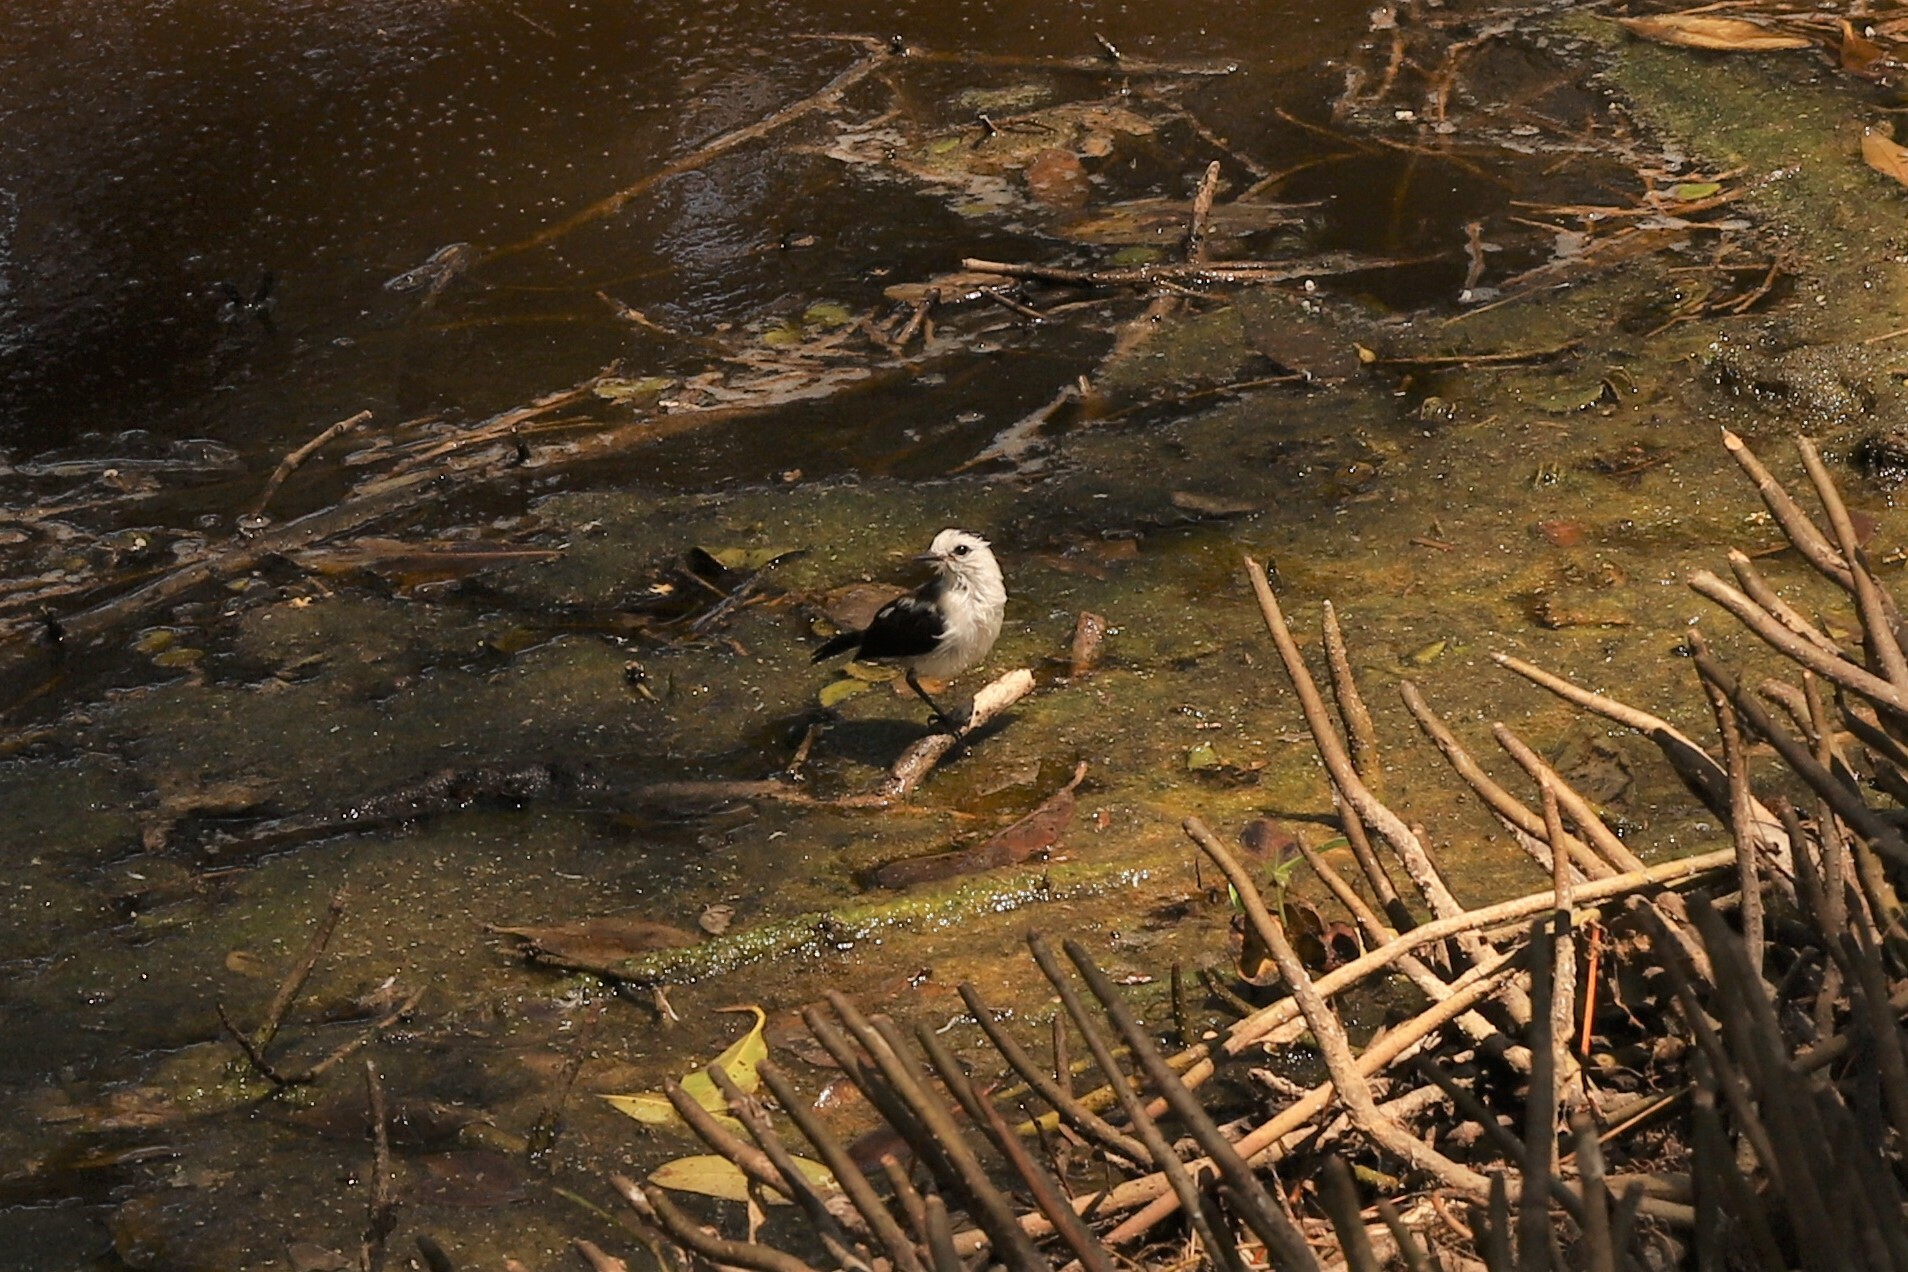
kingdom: Animalia
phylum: Chordata
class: Aves
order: Passeriformes
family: Tyrannidae
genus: Fluvicola
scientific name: Fluvicola pica
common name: Pied water-tyrant
